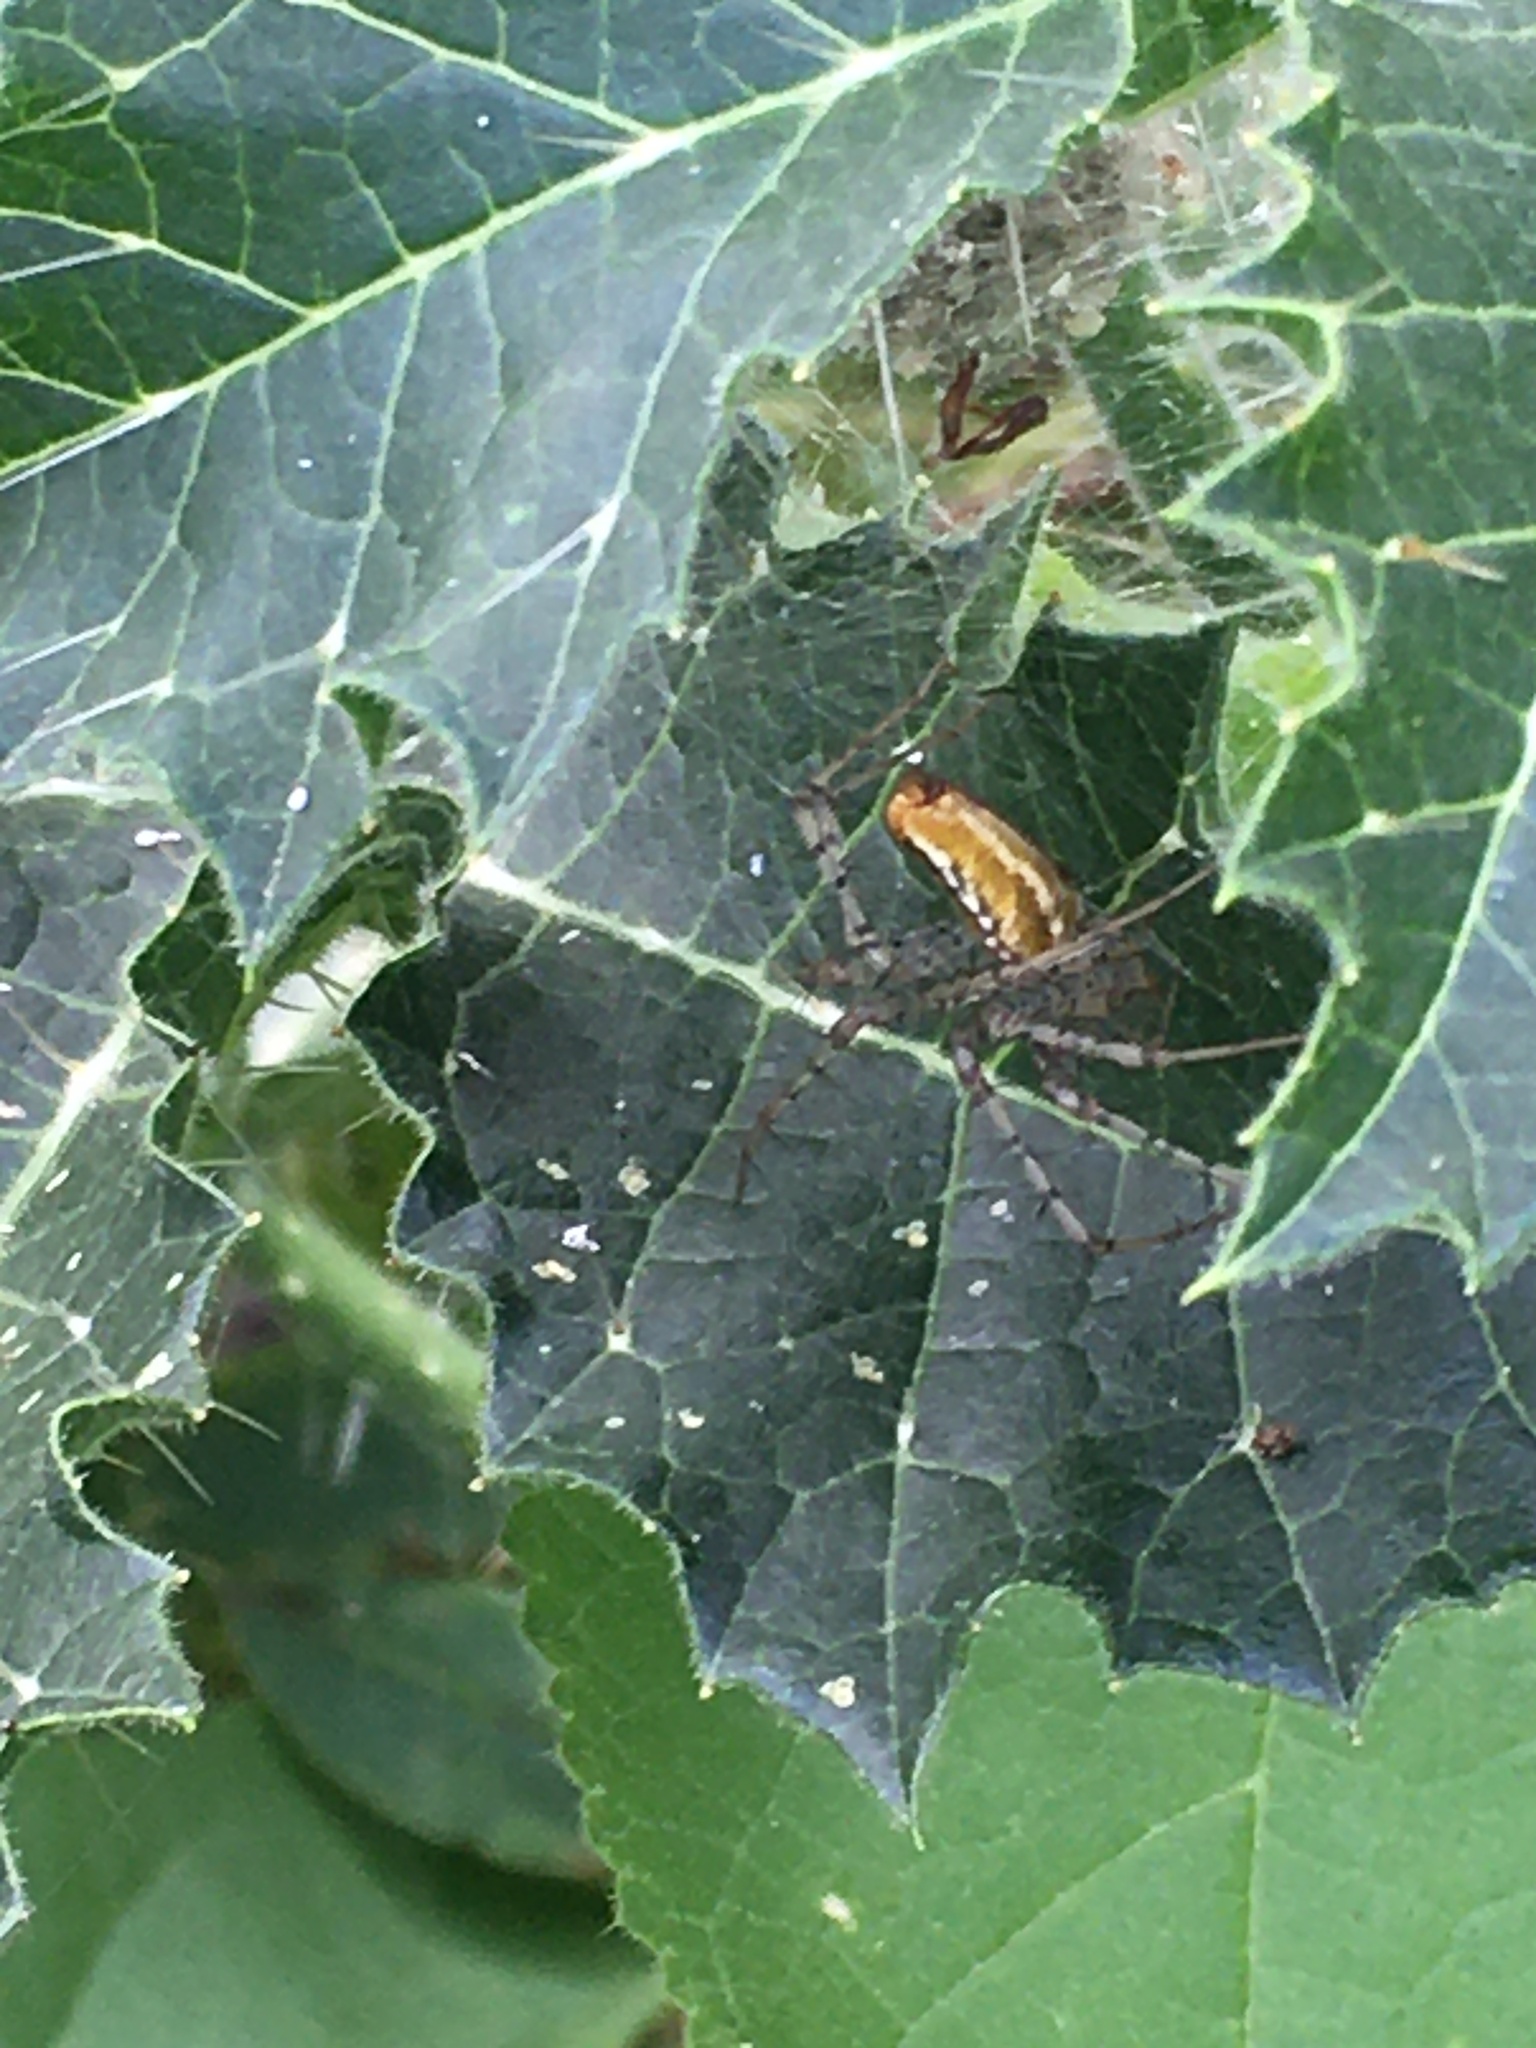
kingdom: Animalia
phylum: Arthropoda
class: Arachnida
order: Araneae
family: Oxyopidae
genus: Peucetia
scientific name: Peucetia flava
